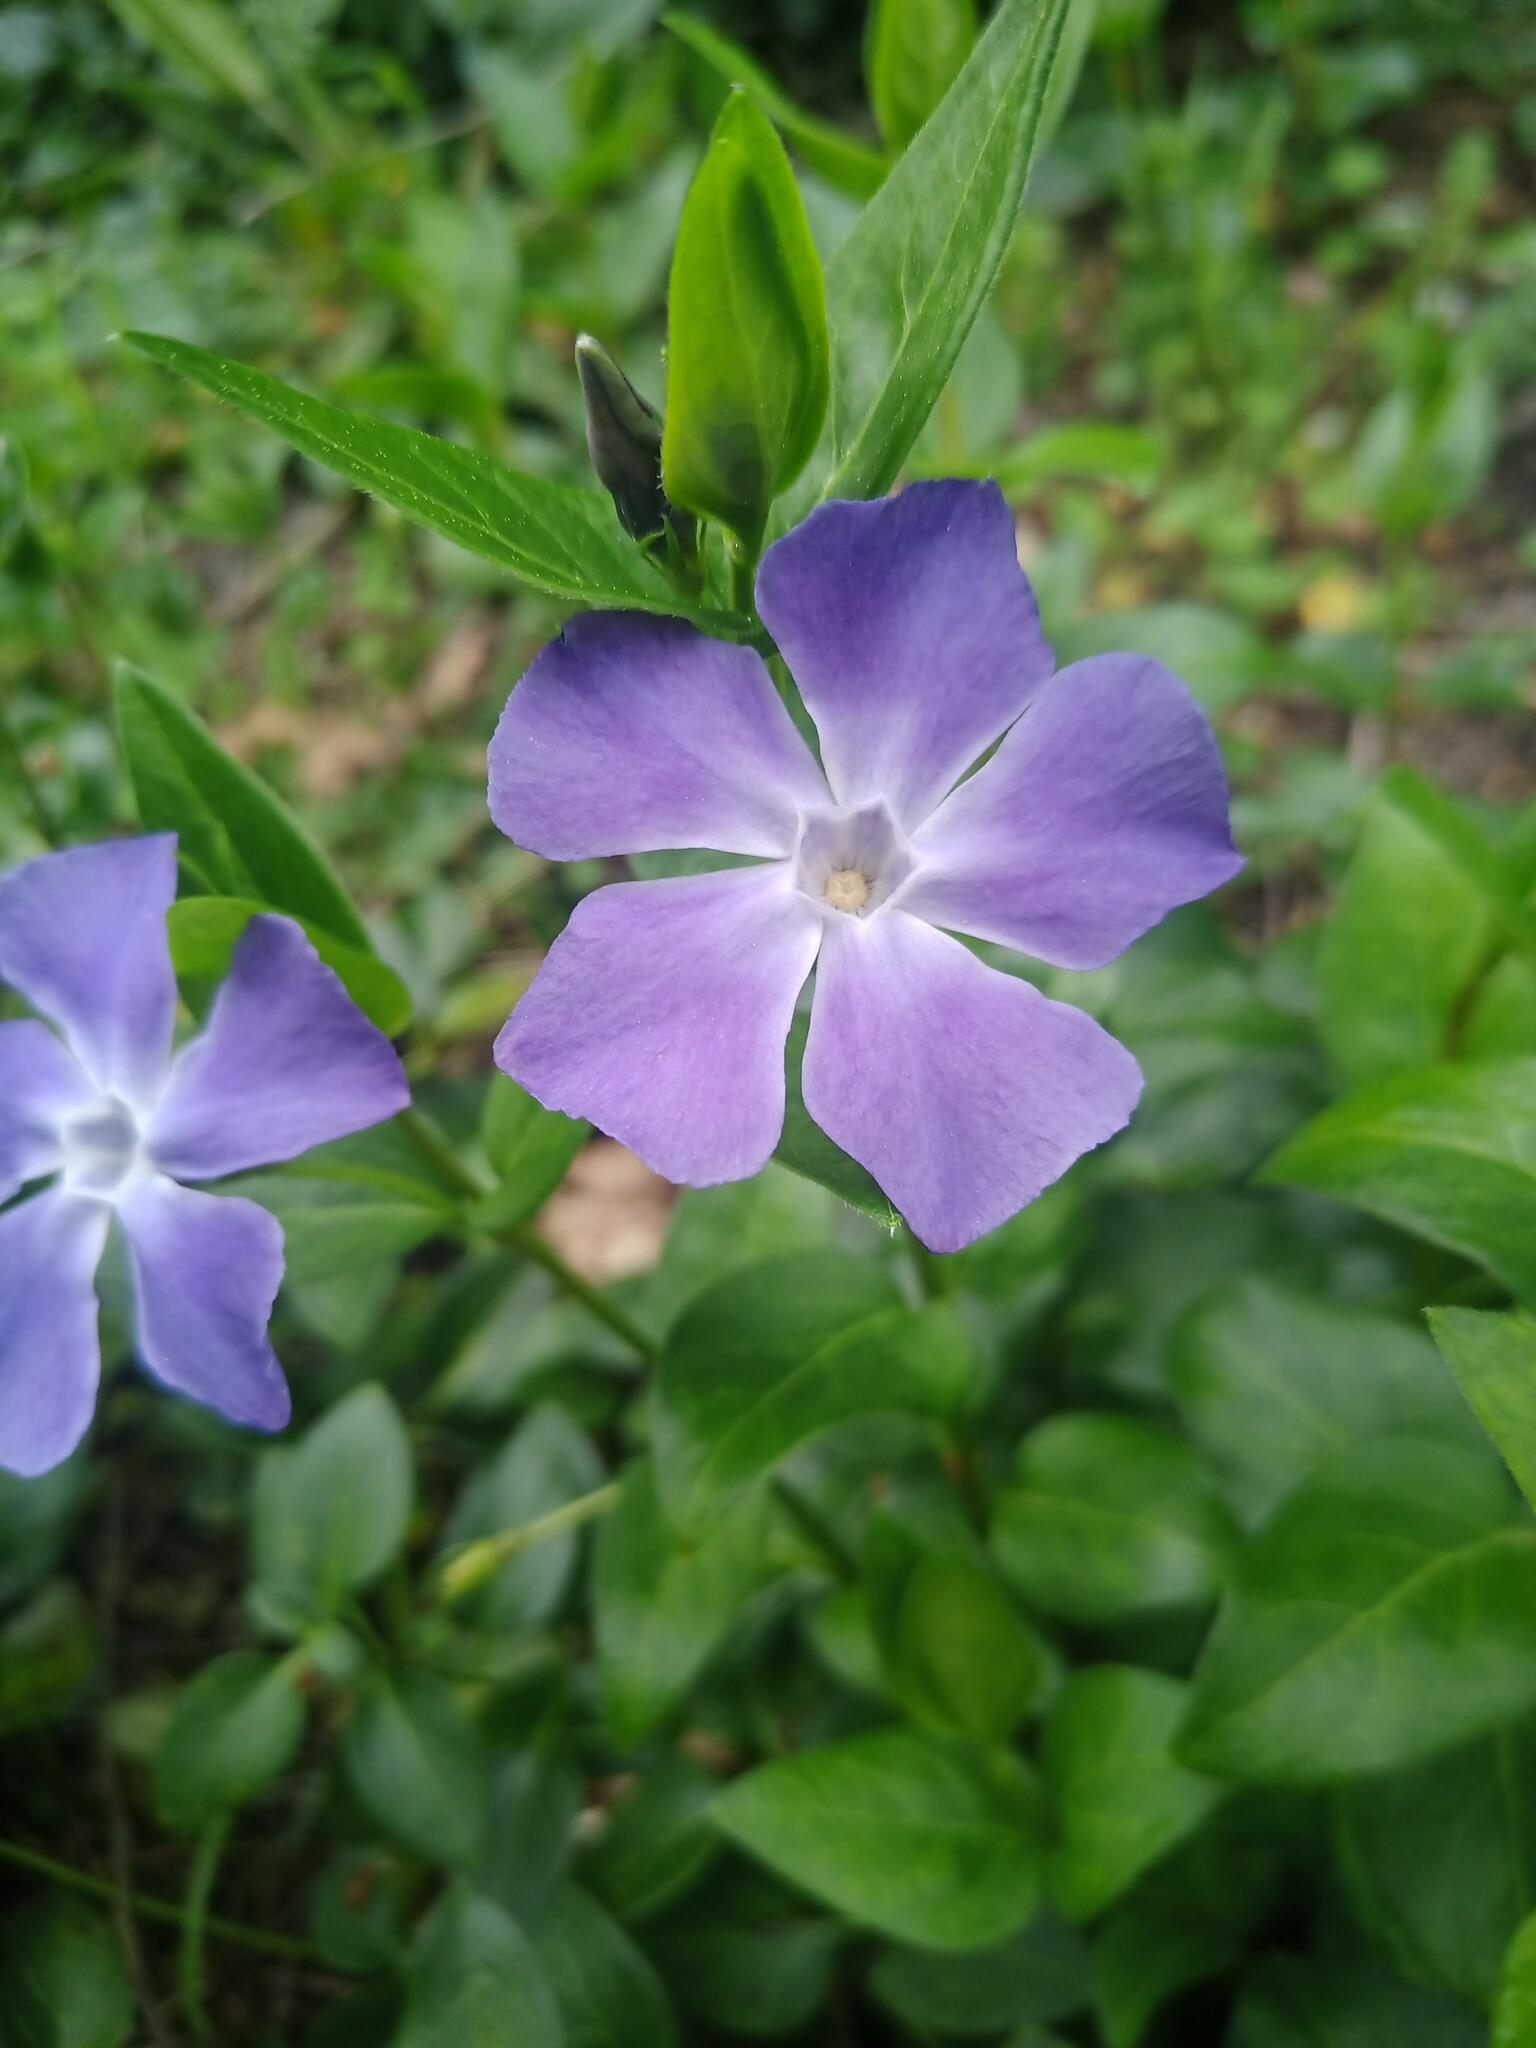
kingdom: Plantae
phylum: Tracheophyta
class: Magnoliopsida
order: Gentianales
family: Apocynaceae
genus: Vinca
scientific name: Vinca major
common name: Greater periwinkle
